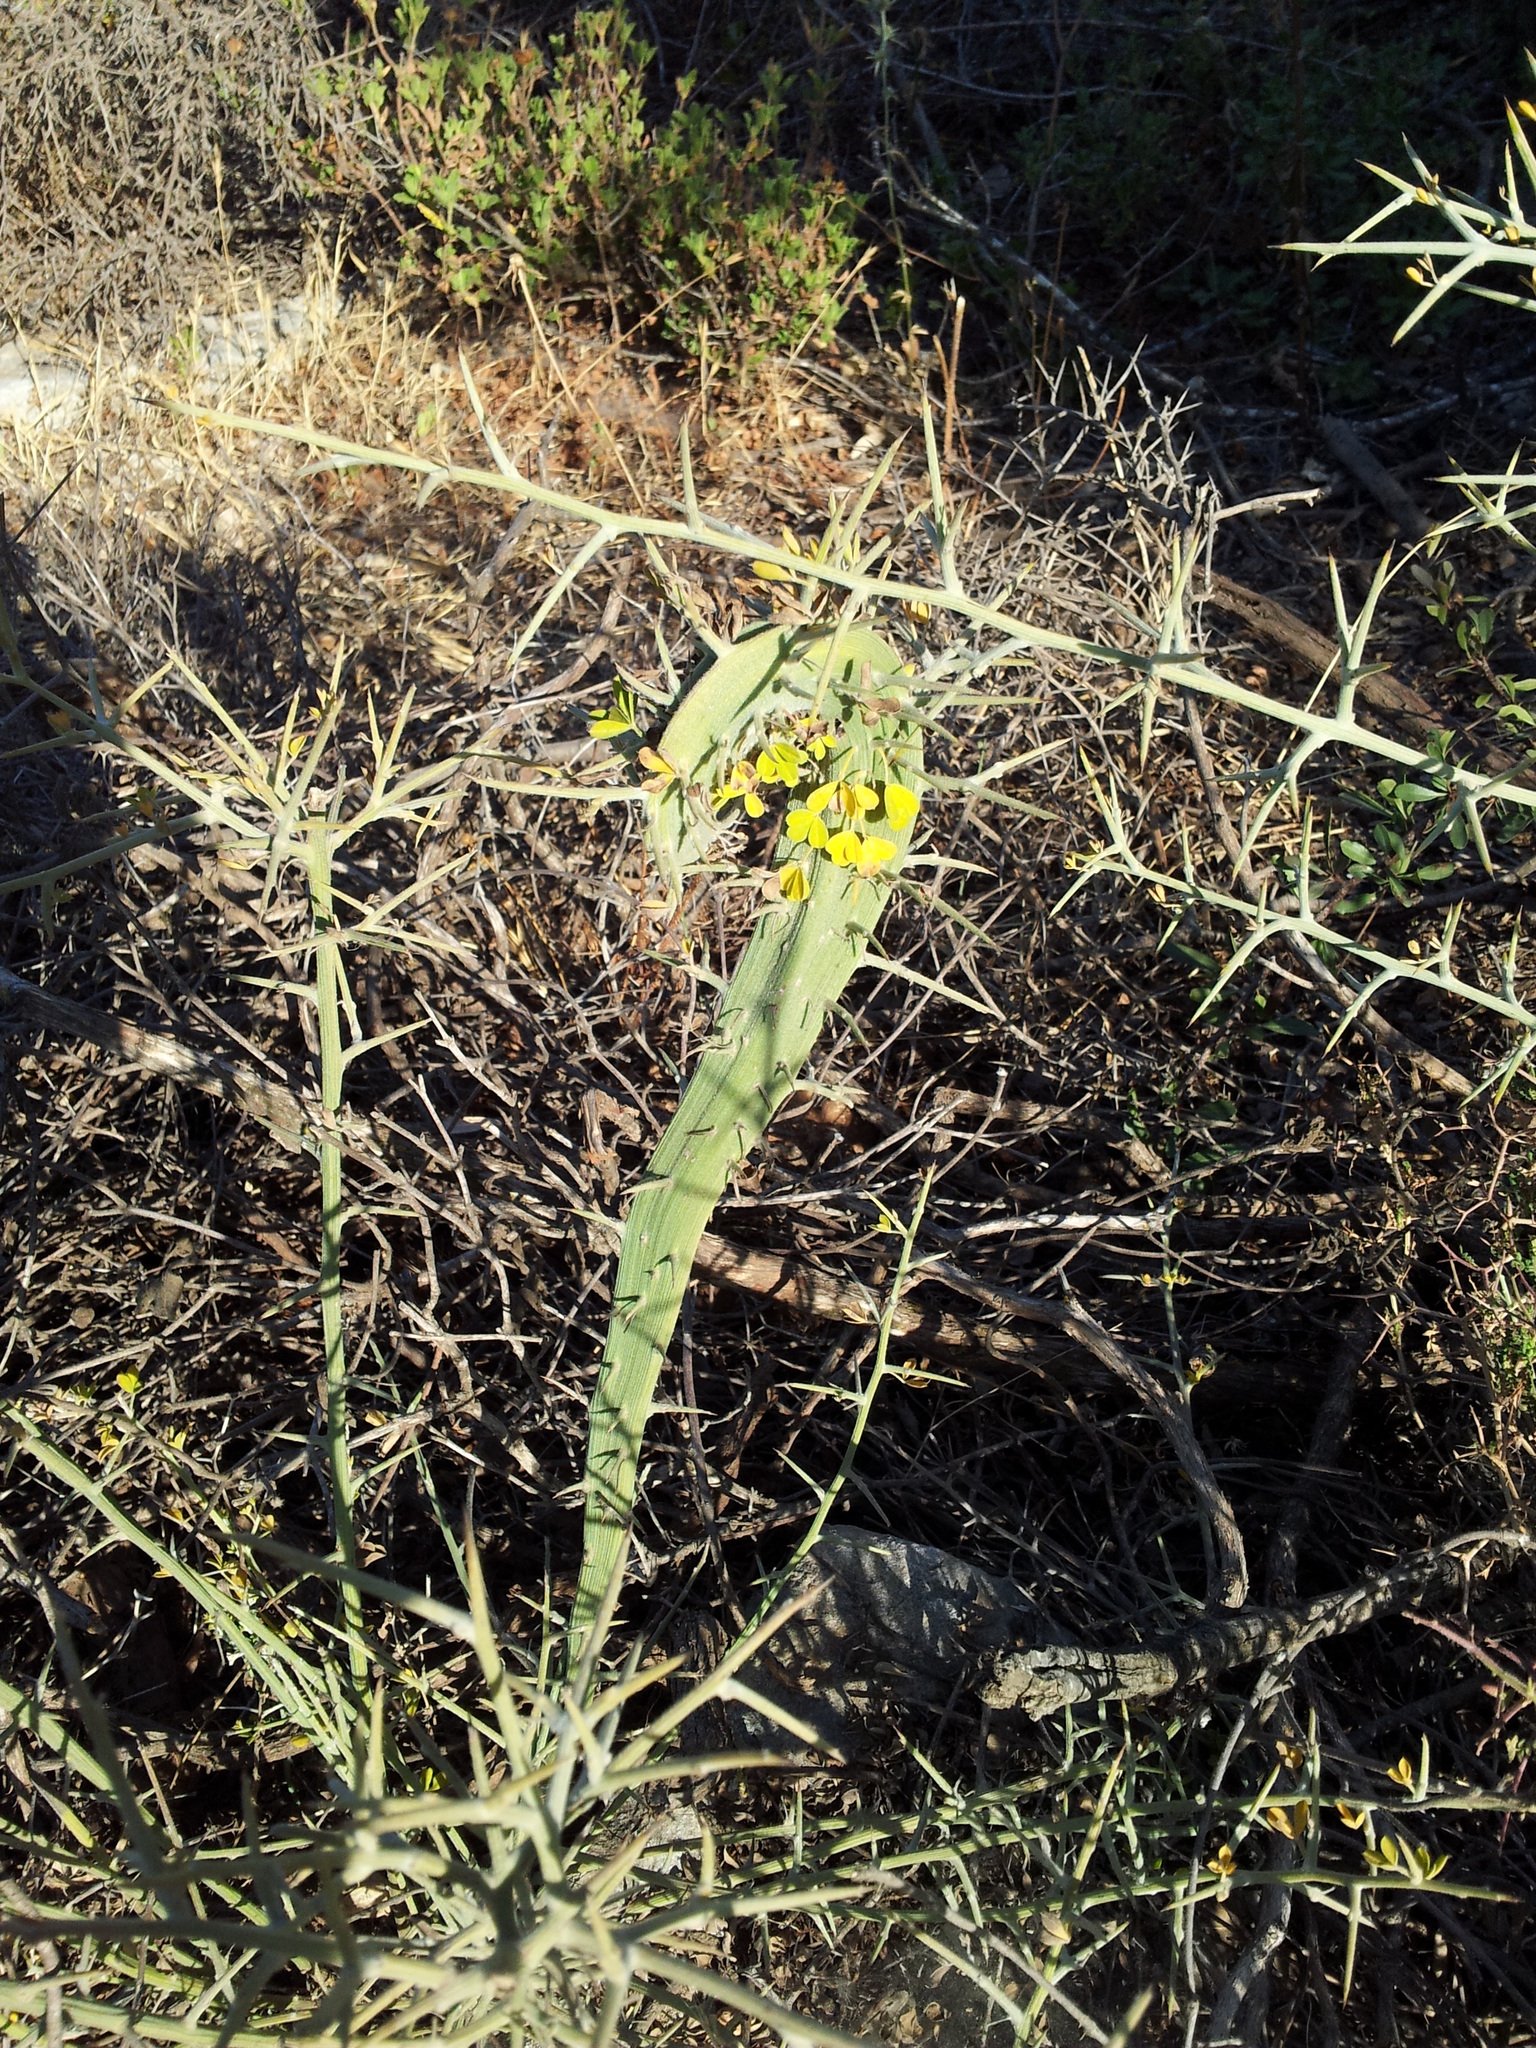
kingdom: Plantae
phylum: Tracheophyta
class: Magnoliopsida
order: Fabales
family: Fabaceae
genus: Calicotome
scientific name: Calicotome villosa
